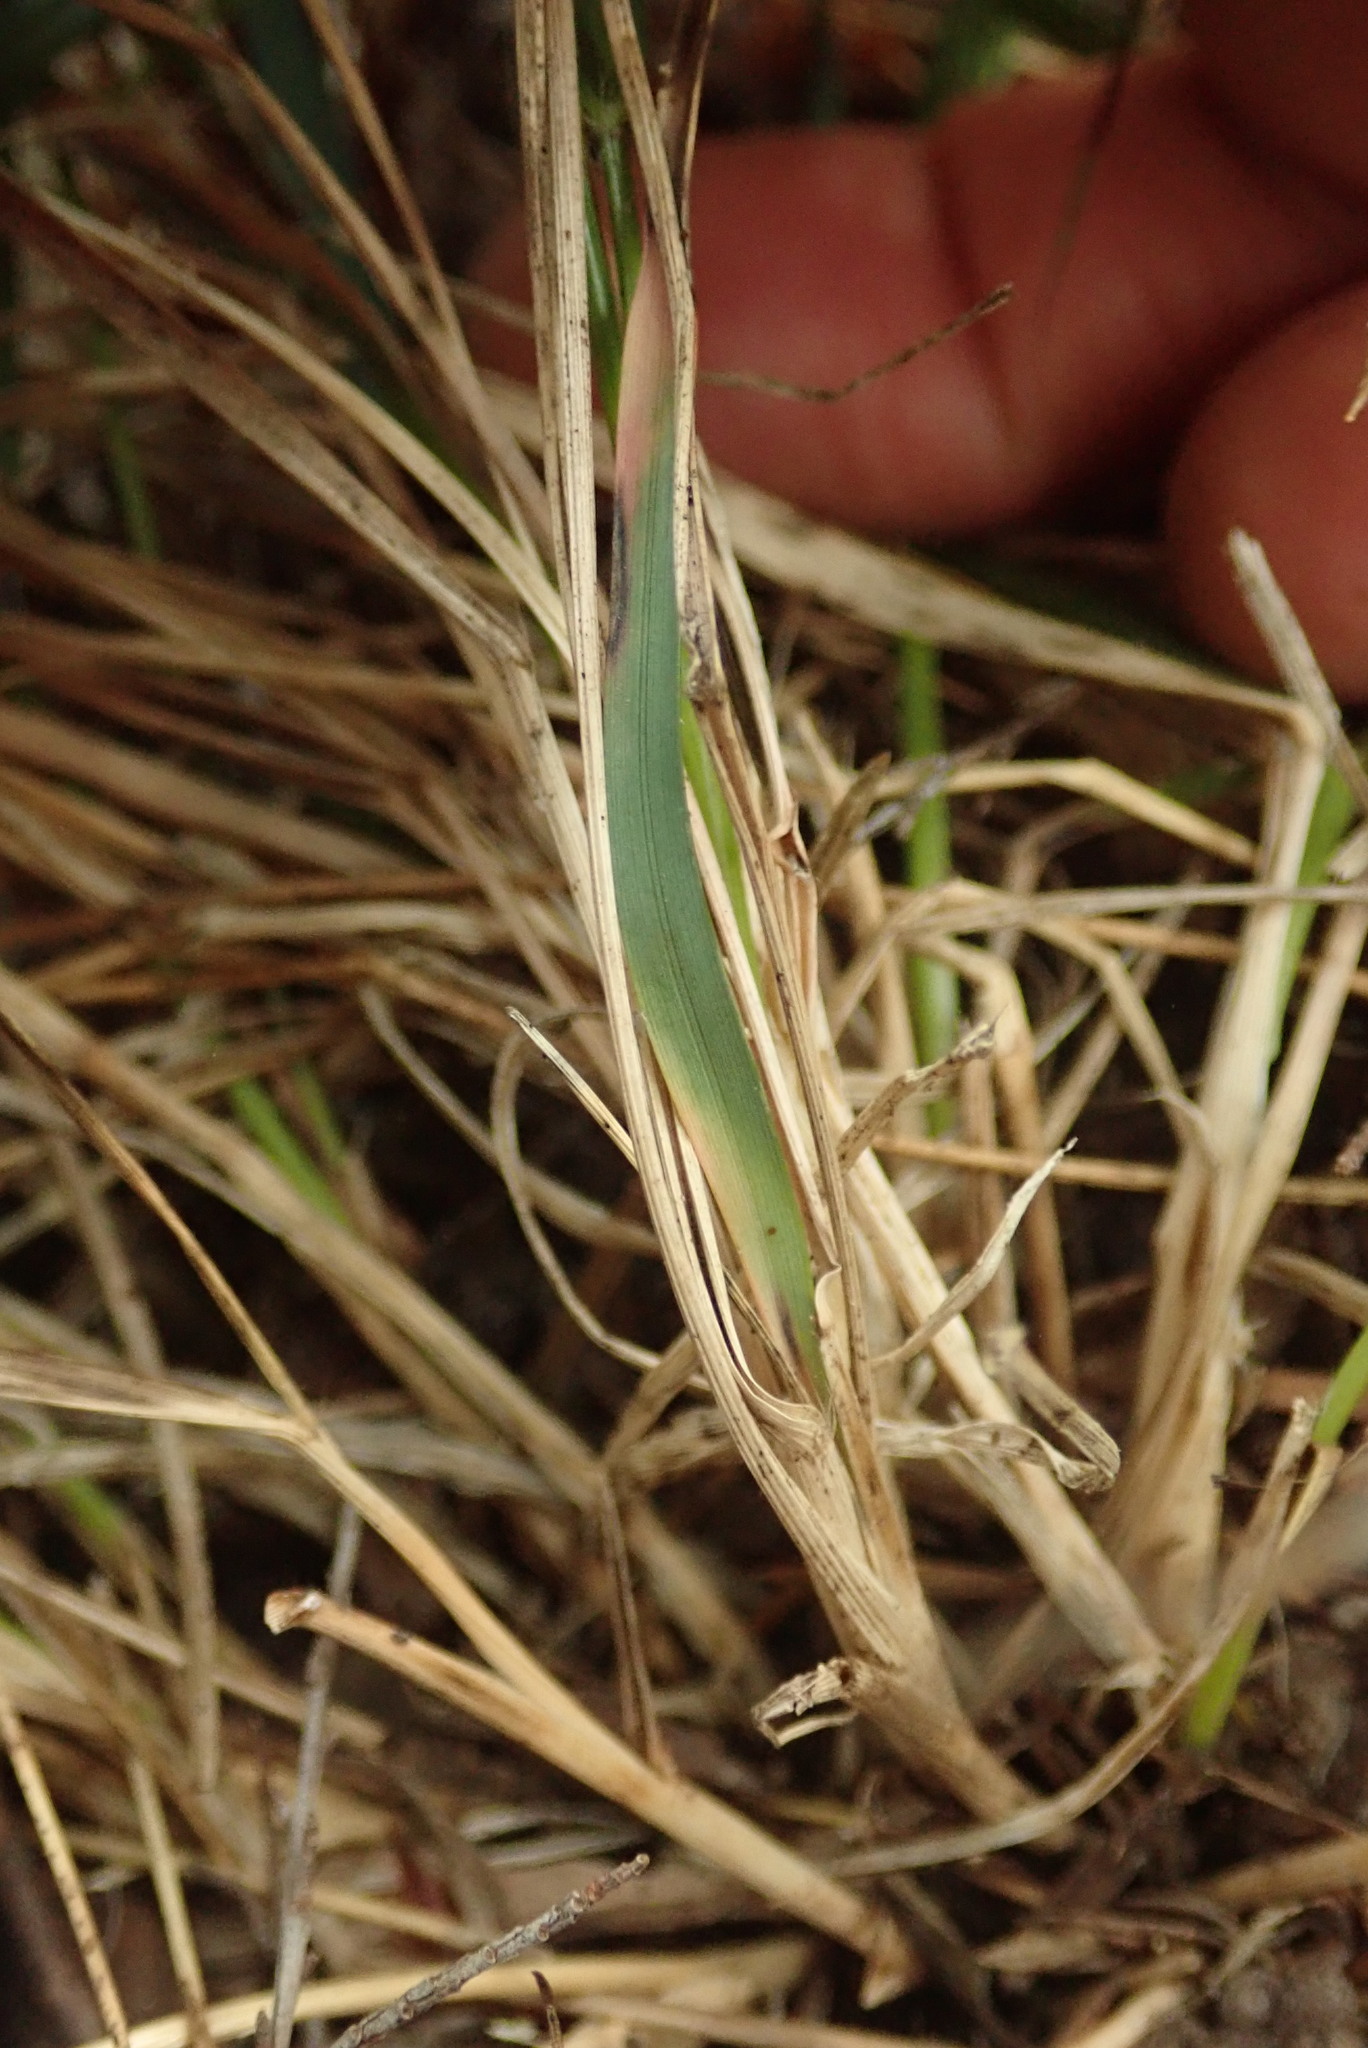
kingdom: Plantae
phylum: Tracheophyta
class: Liliopsida
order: Poales
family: Poaceae
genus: Danthonia
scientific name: Danthonia decumbens
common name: Common heathgrass
